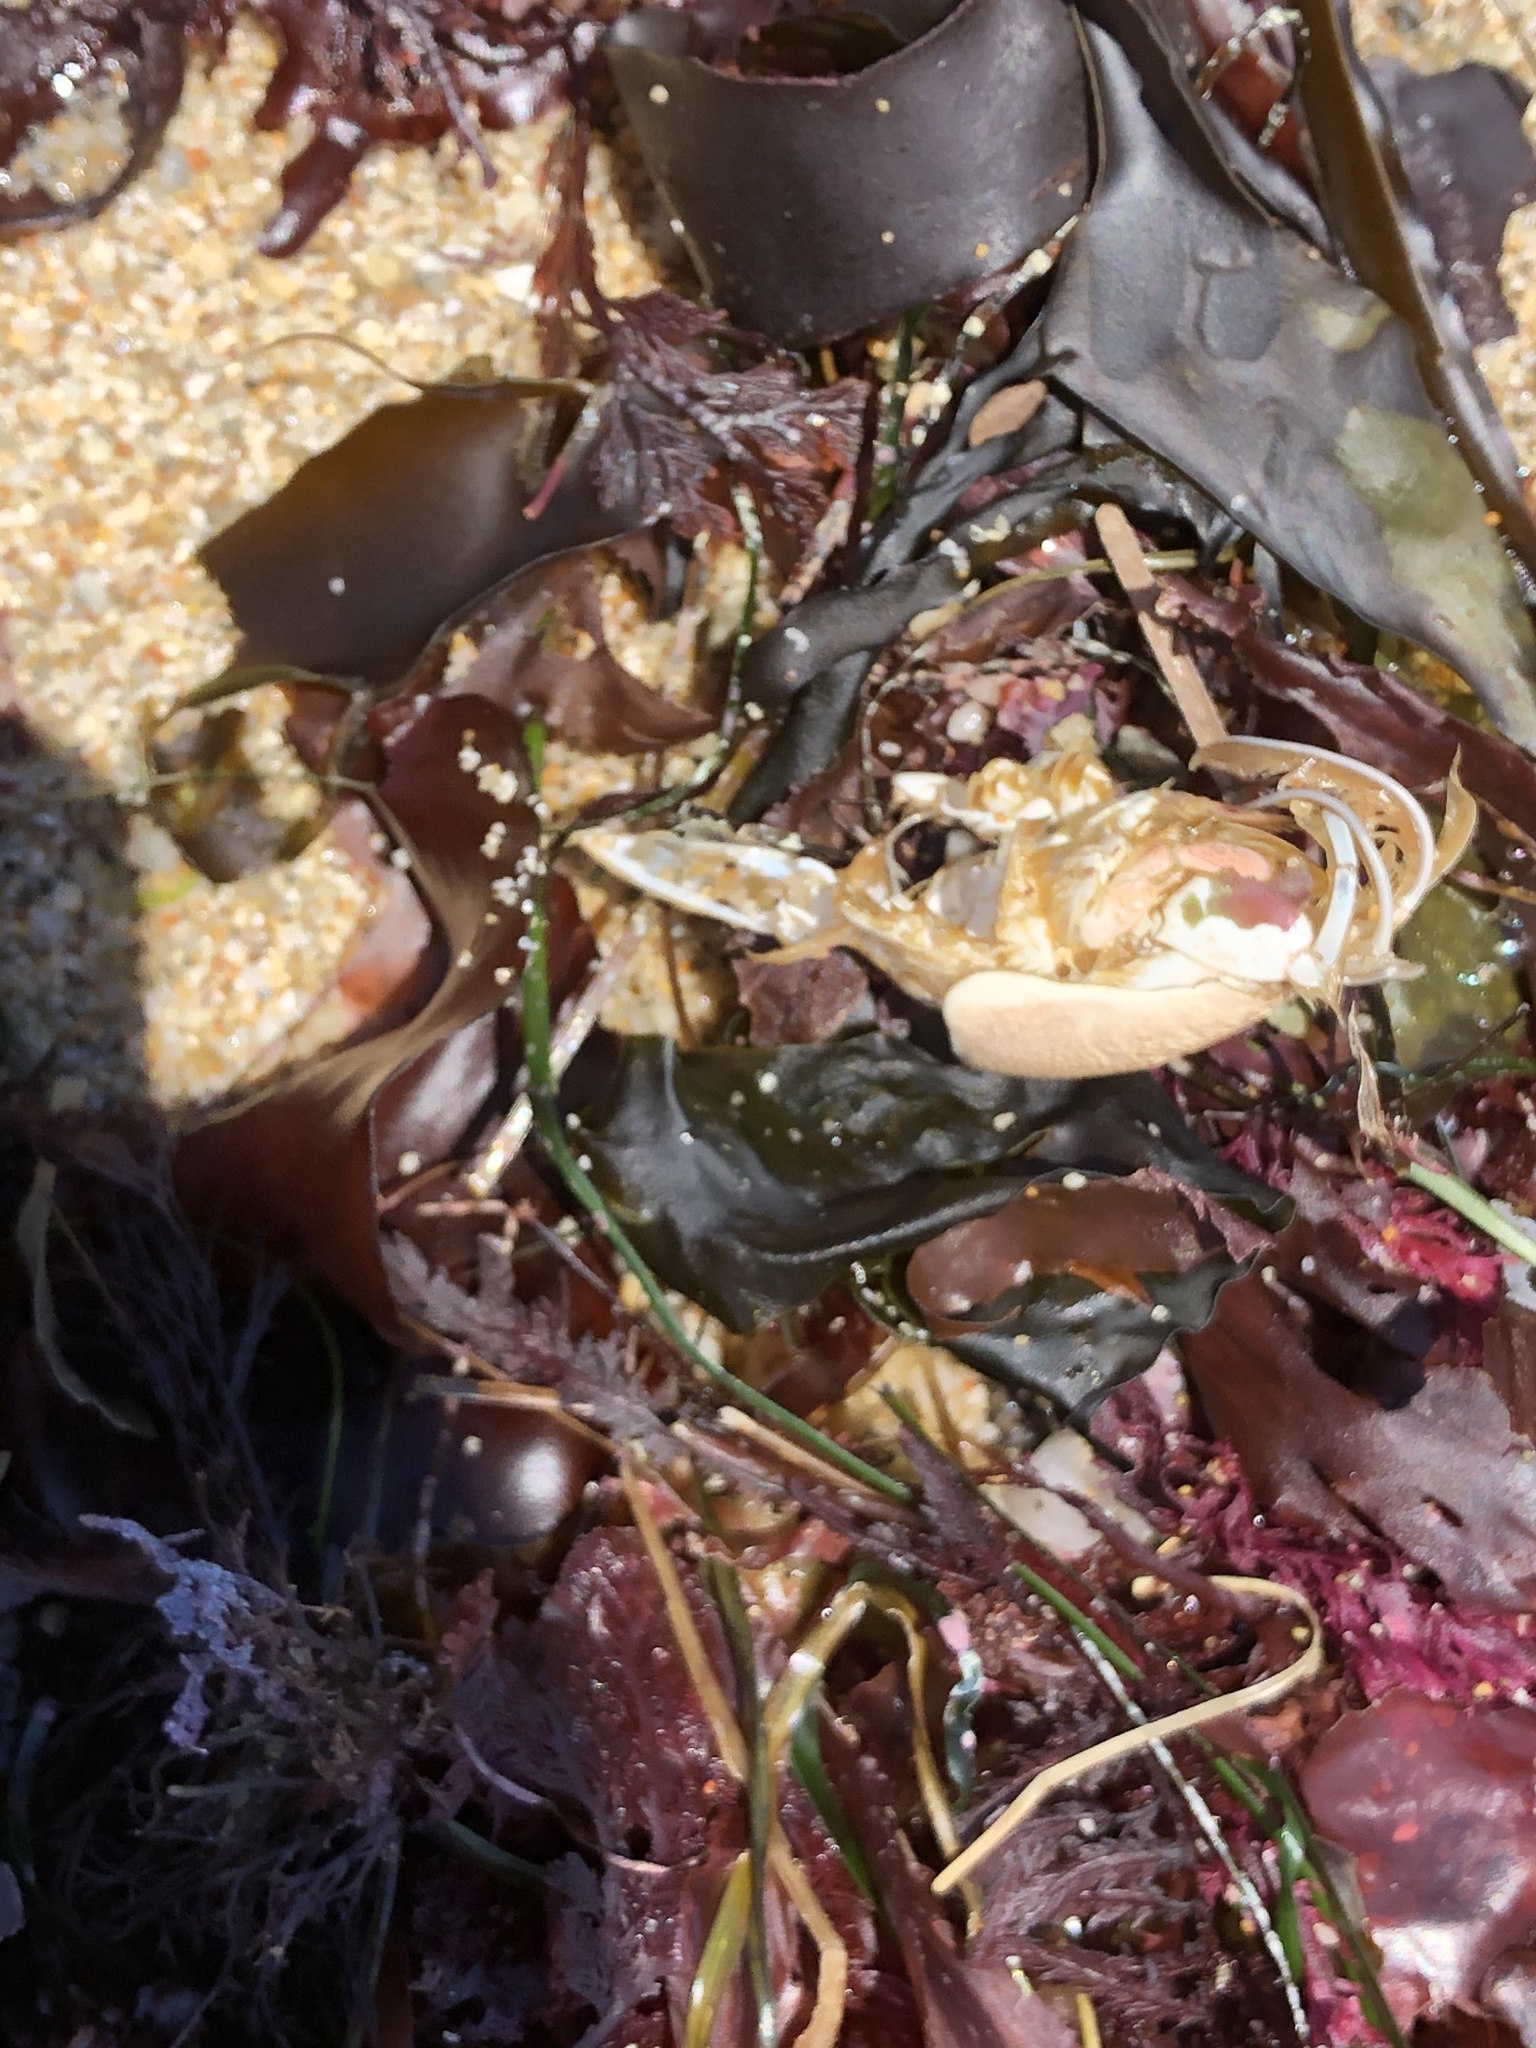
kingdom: Animalia
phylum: Arthropoda
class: Malacostraca
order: Decapoda
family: Hippidae
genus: Emerita
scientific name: Emerita analoga
